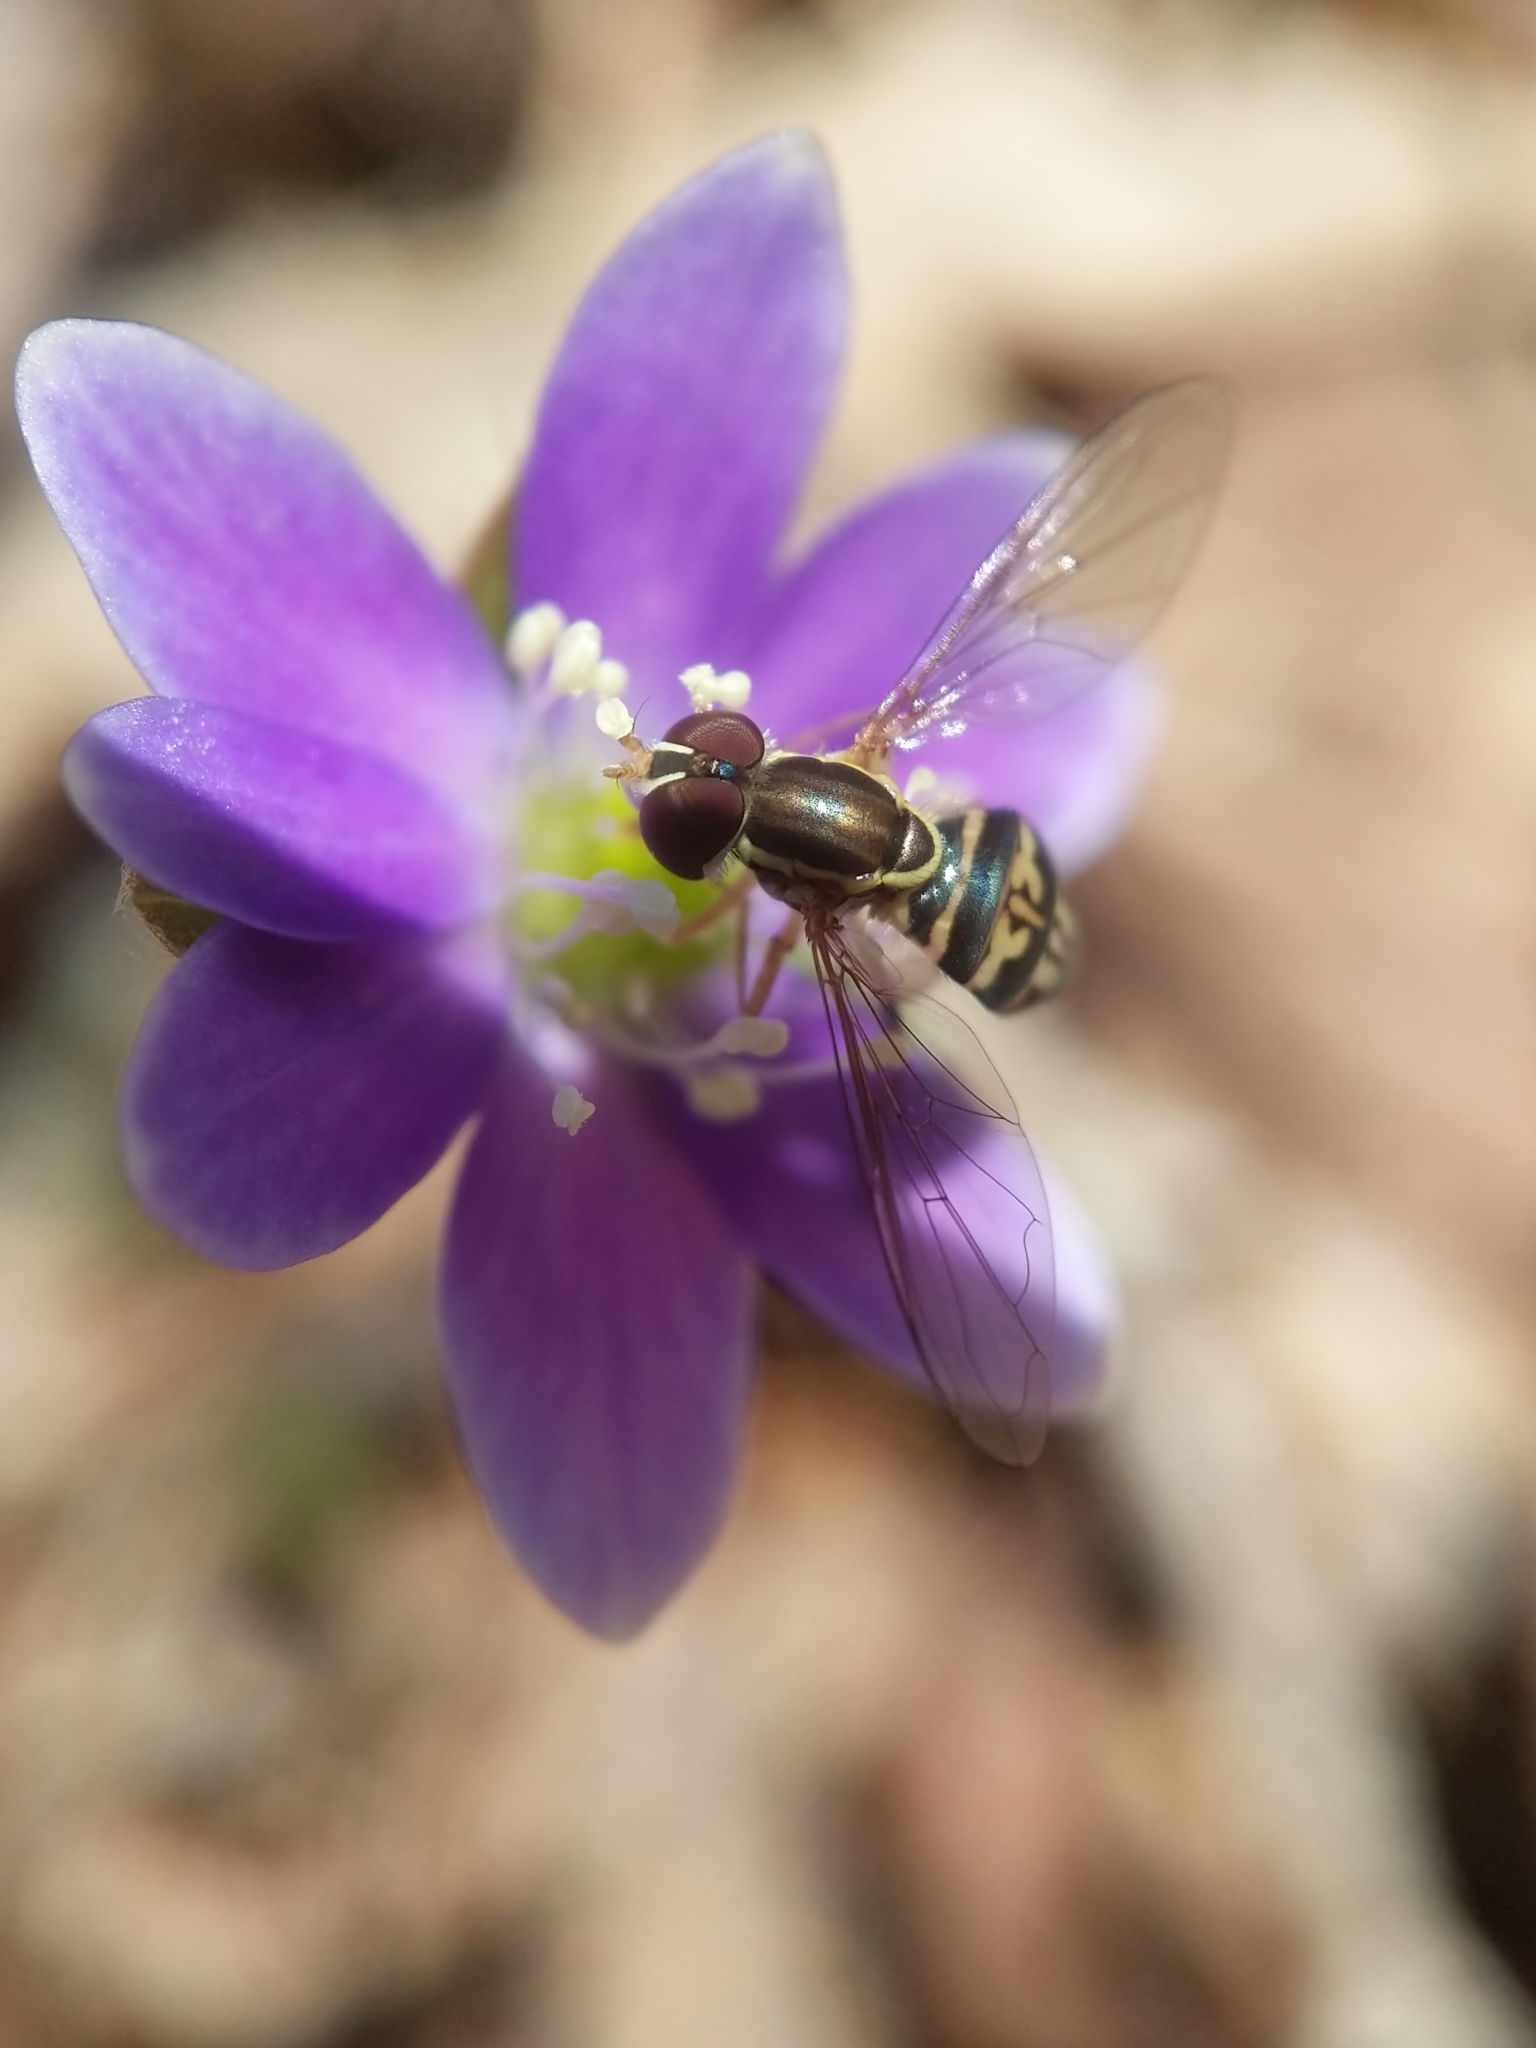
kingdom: Animalia
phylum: Arthropoda
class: Insecta
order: Diptera
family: Syrphidae
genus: Toxomerus
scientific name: Toxomerus geminatus
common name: Eastern calligrapher
